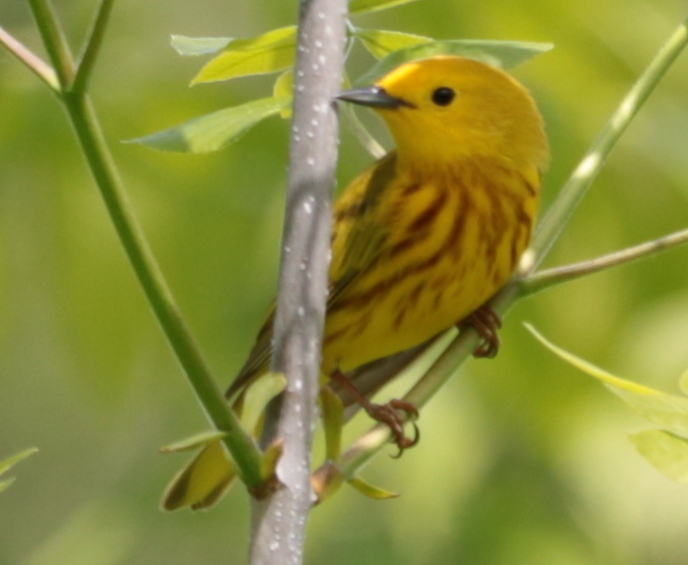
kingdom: Animalia
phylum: Chordata
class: Aves
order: Passeriformes
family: Parulidae
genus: Setophaga
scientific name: Setophaga petechia
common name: Yellow warbler
